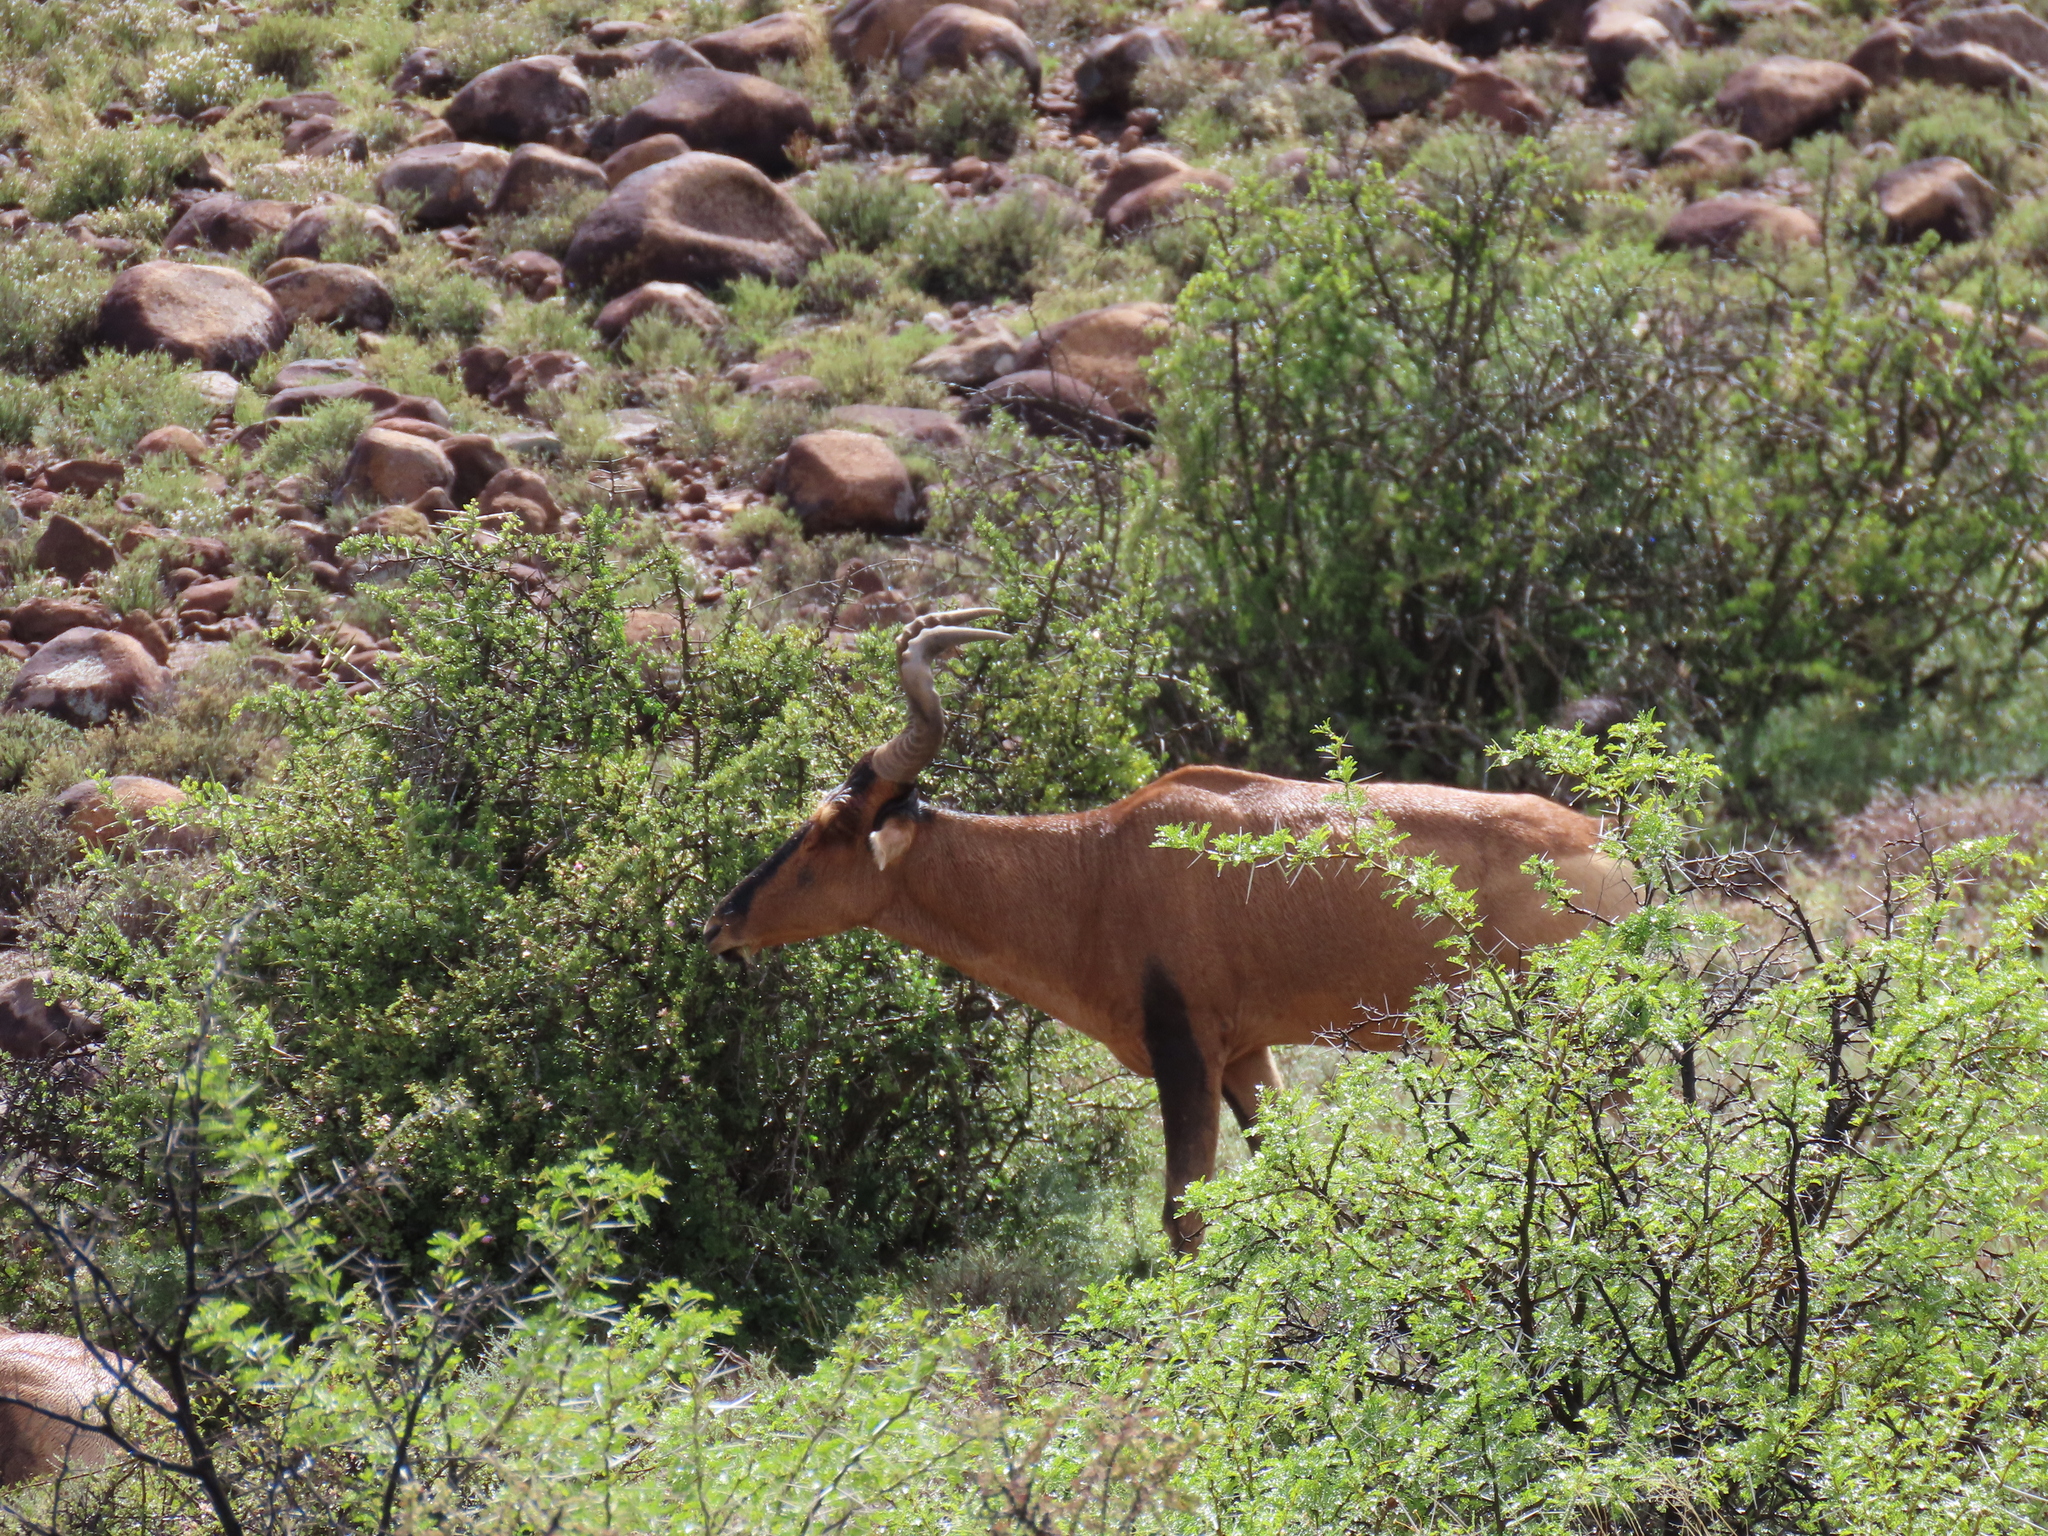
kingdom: Animalia
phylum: Chordata
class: Mammalia
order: Artiodactyla
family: Bovidae
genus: Alcelaphus
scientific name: Alcelaphus caama
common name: Red hartebeest
